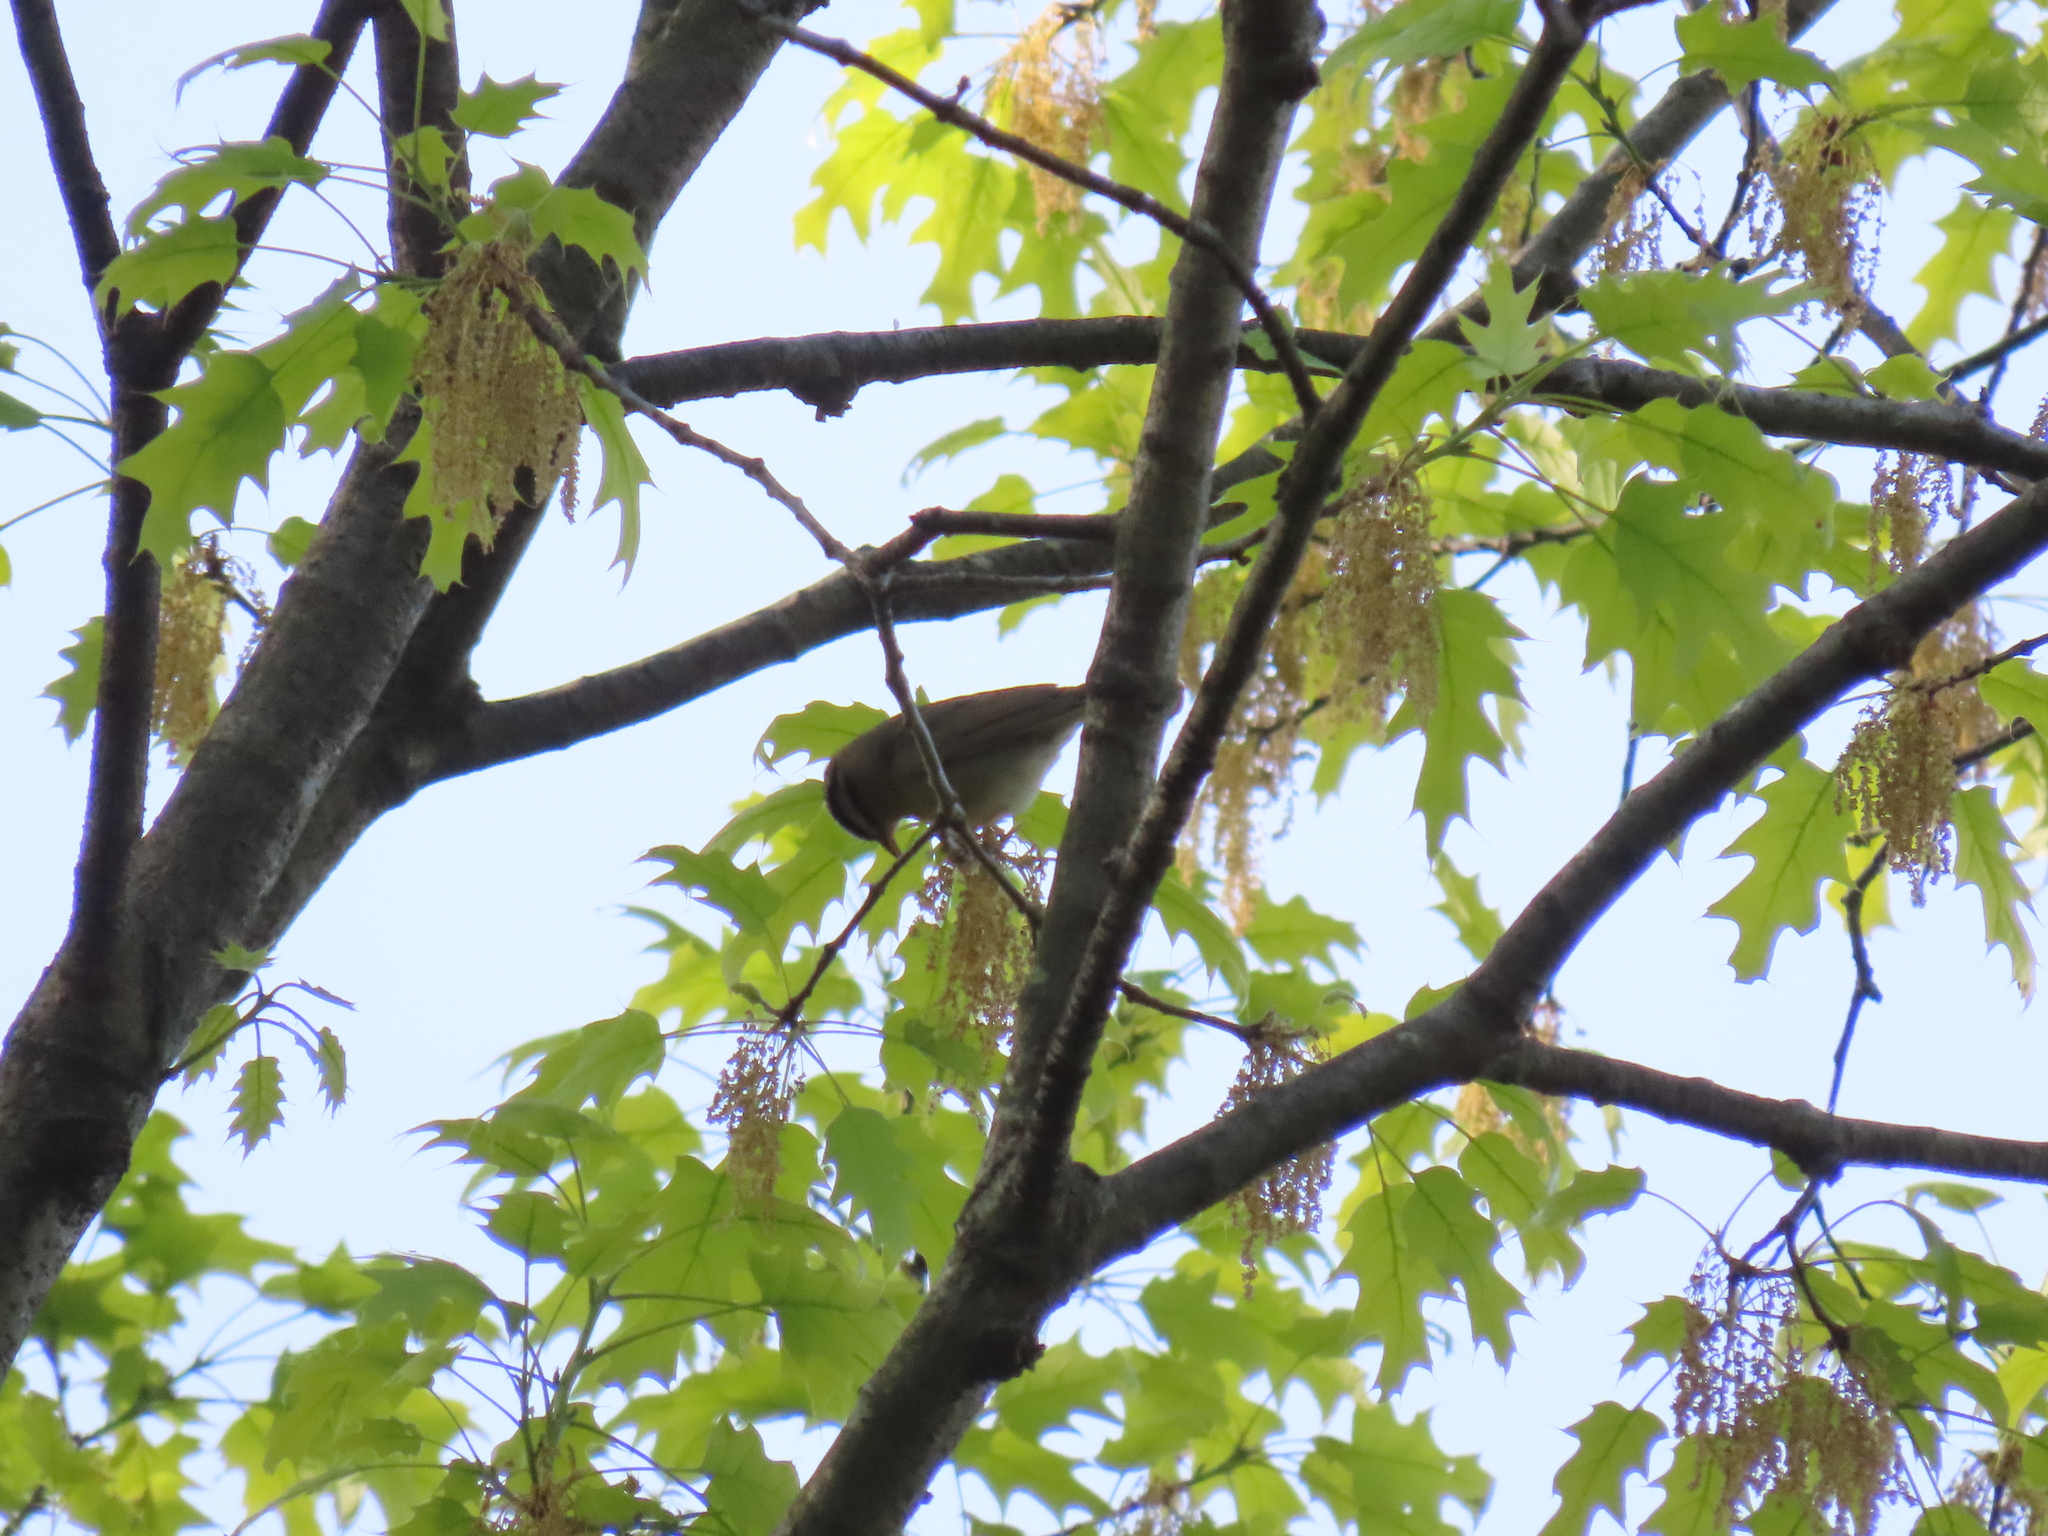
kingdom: Animalia
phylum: Chordata
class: Aves
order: Passeriformes
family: Parulidae
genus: Helmitheros
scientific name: Helmitheros vermivorum
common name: Worm-eating warbler
